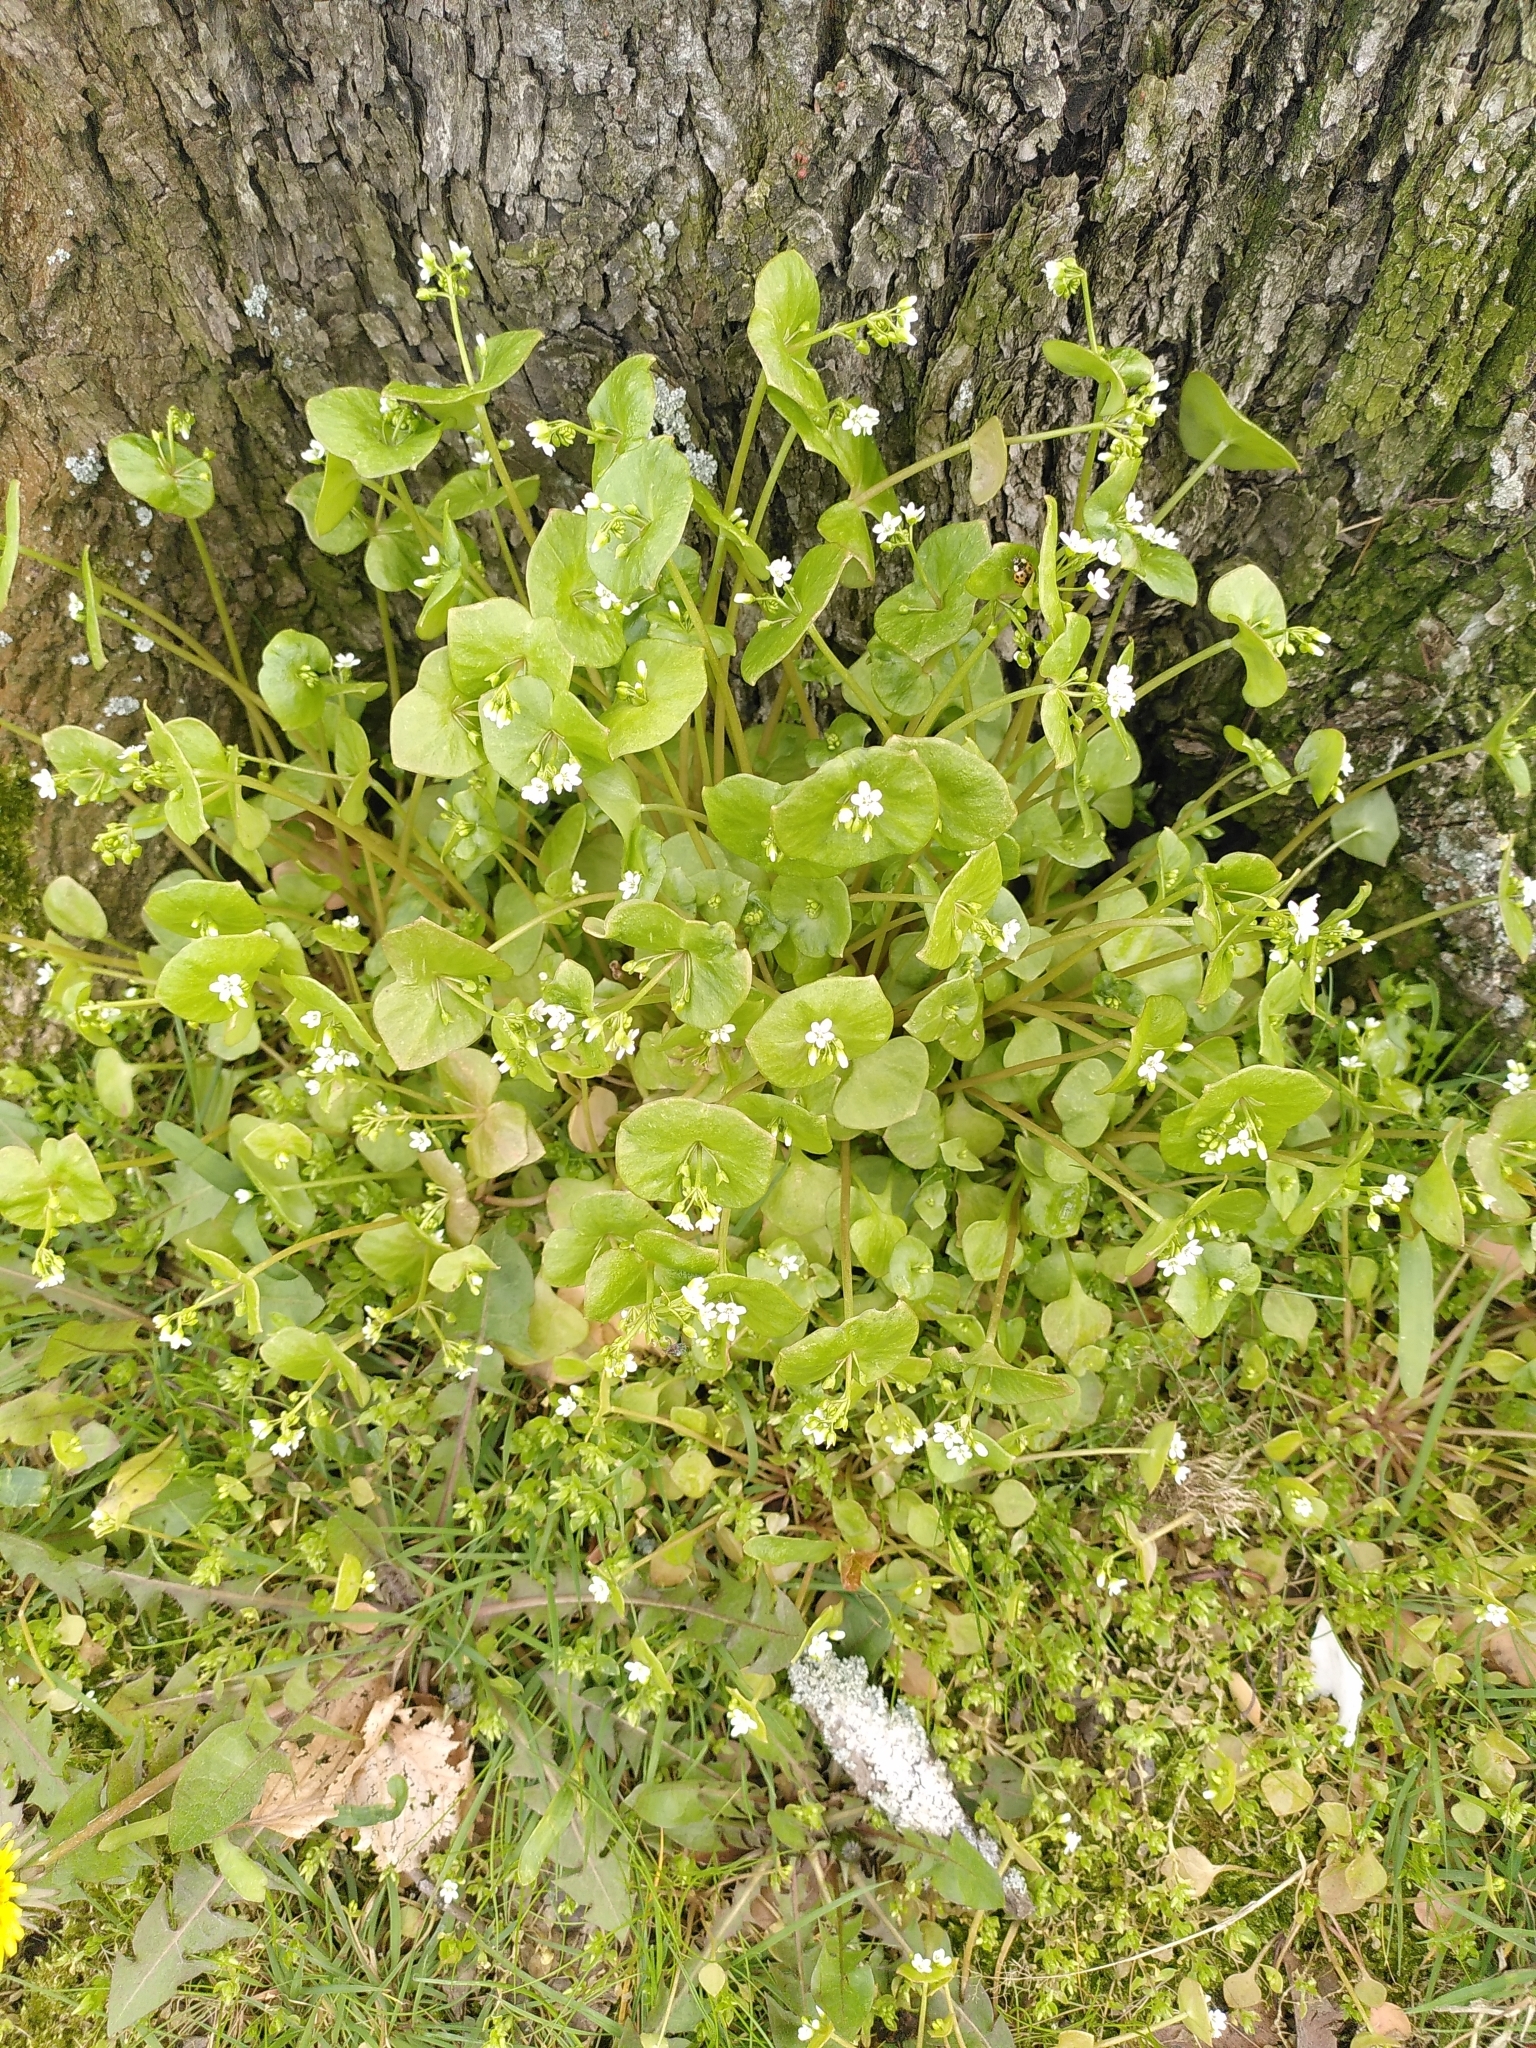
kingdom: Plantae
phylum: Tracheophyta
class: Magnoliopsida
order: Caryophyllales
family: Montiaceae
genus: Claytonia
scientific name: Claytonia perfoliata
